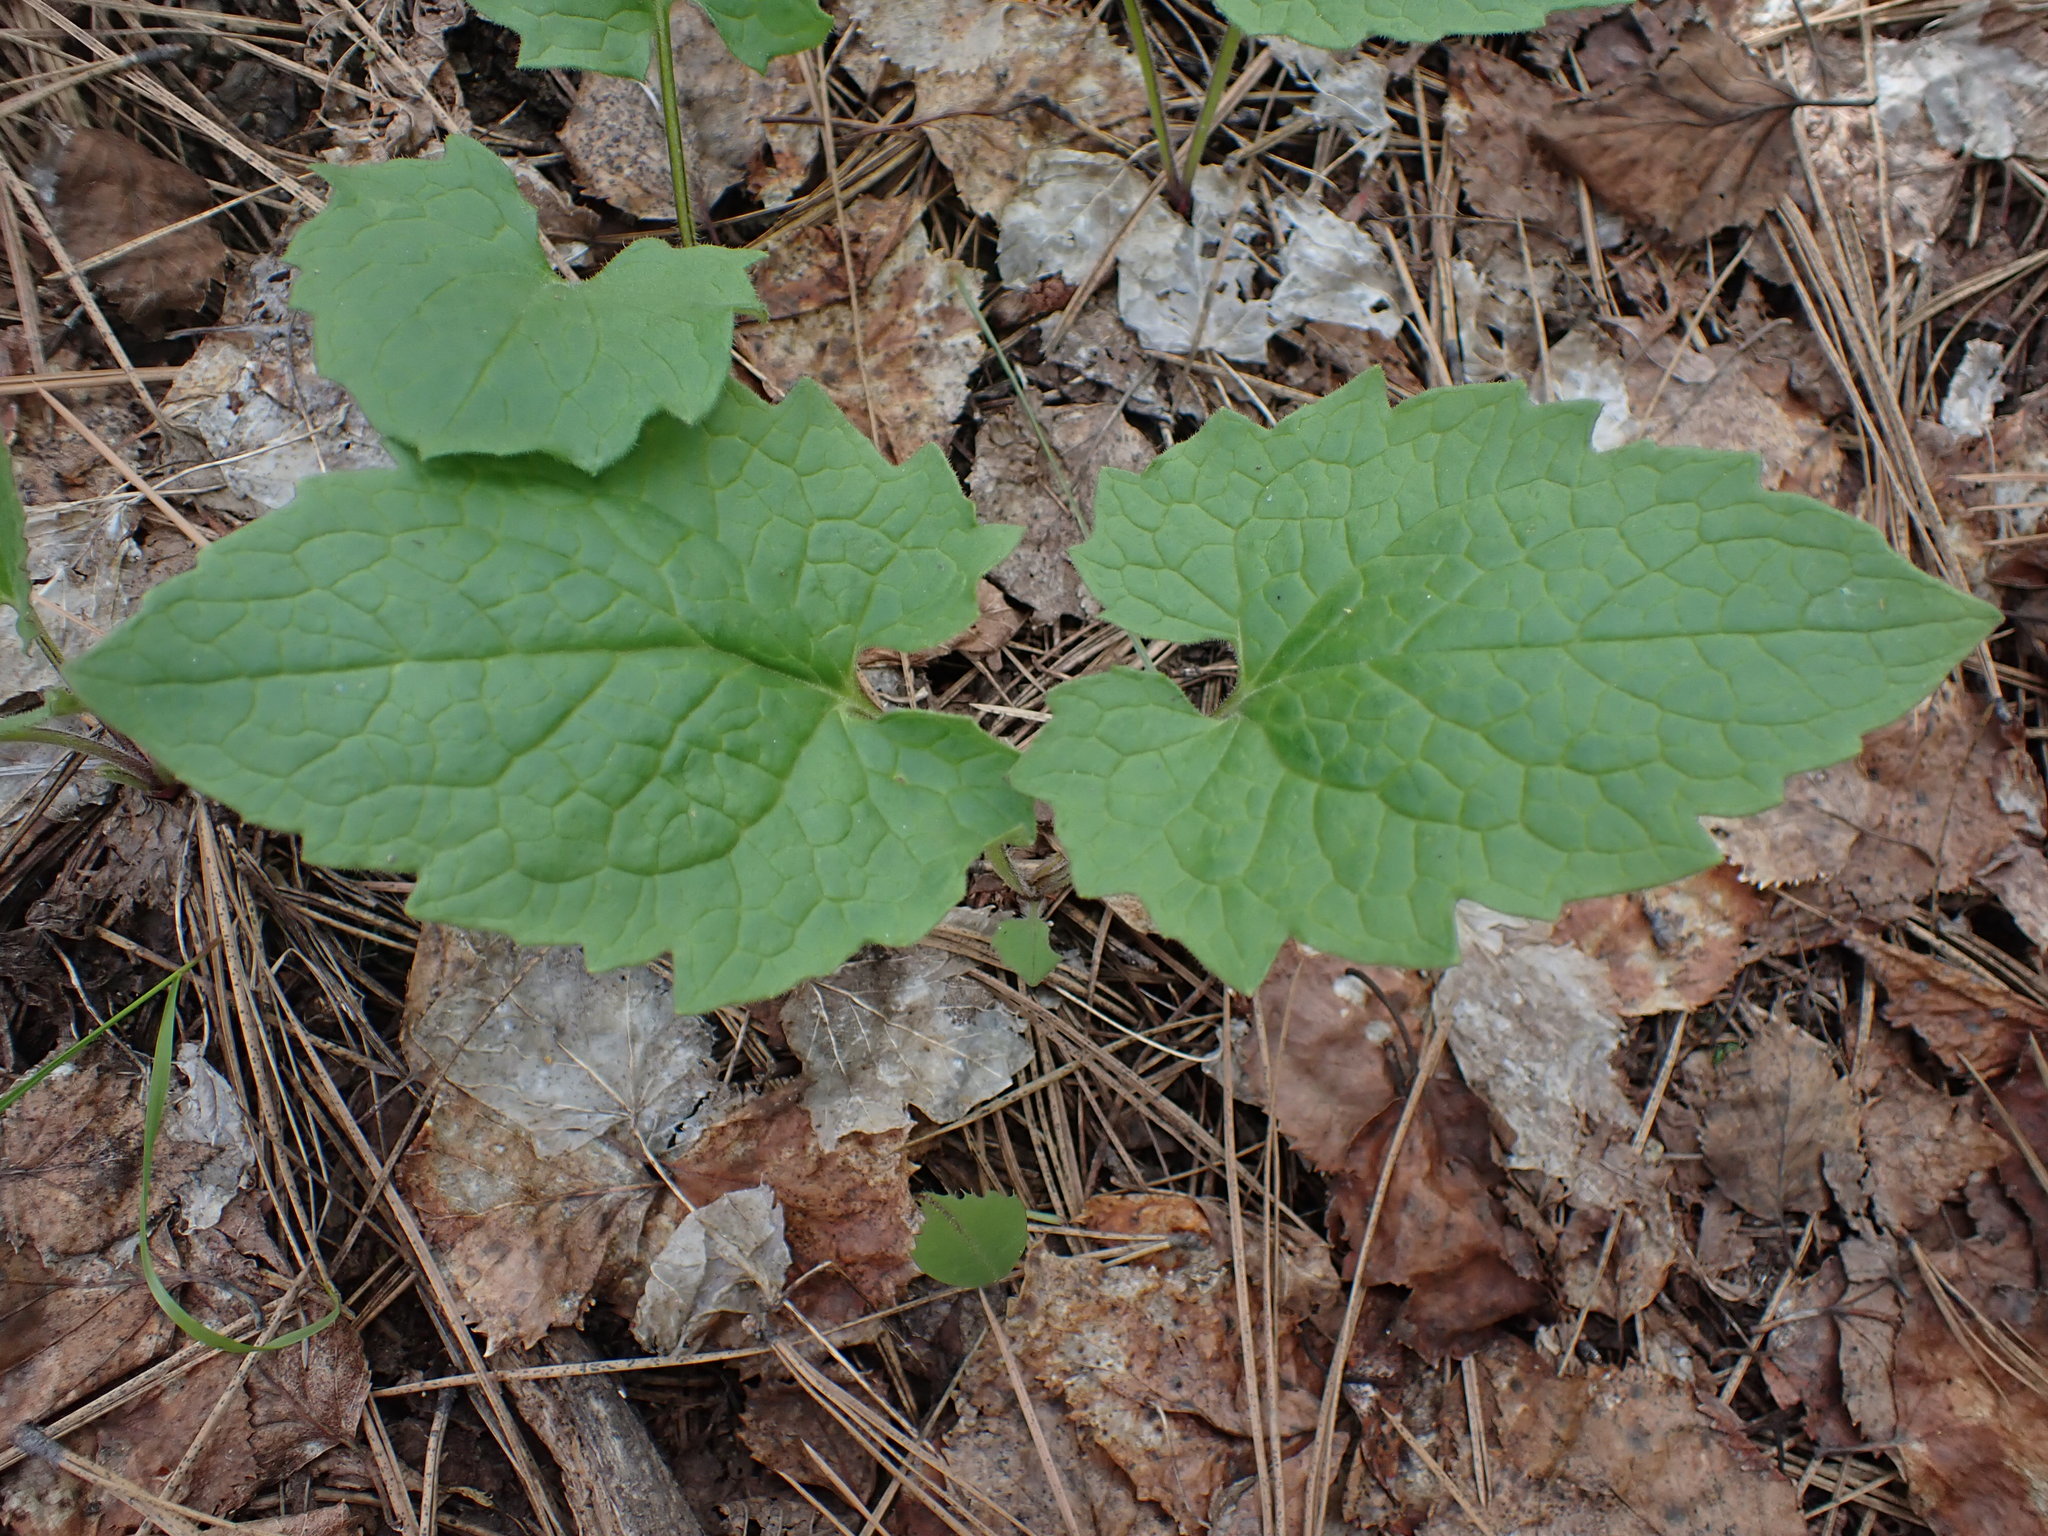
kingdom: Plantae
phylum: Tracheophyta
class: Magnoliopsida
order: Asterales
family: Asteraceae
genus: Arnica
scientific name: Arnica cordifolia
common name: Heart-leaf arnica
